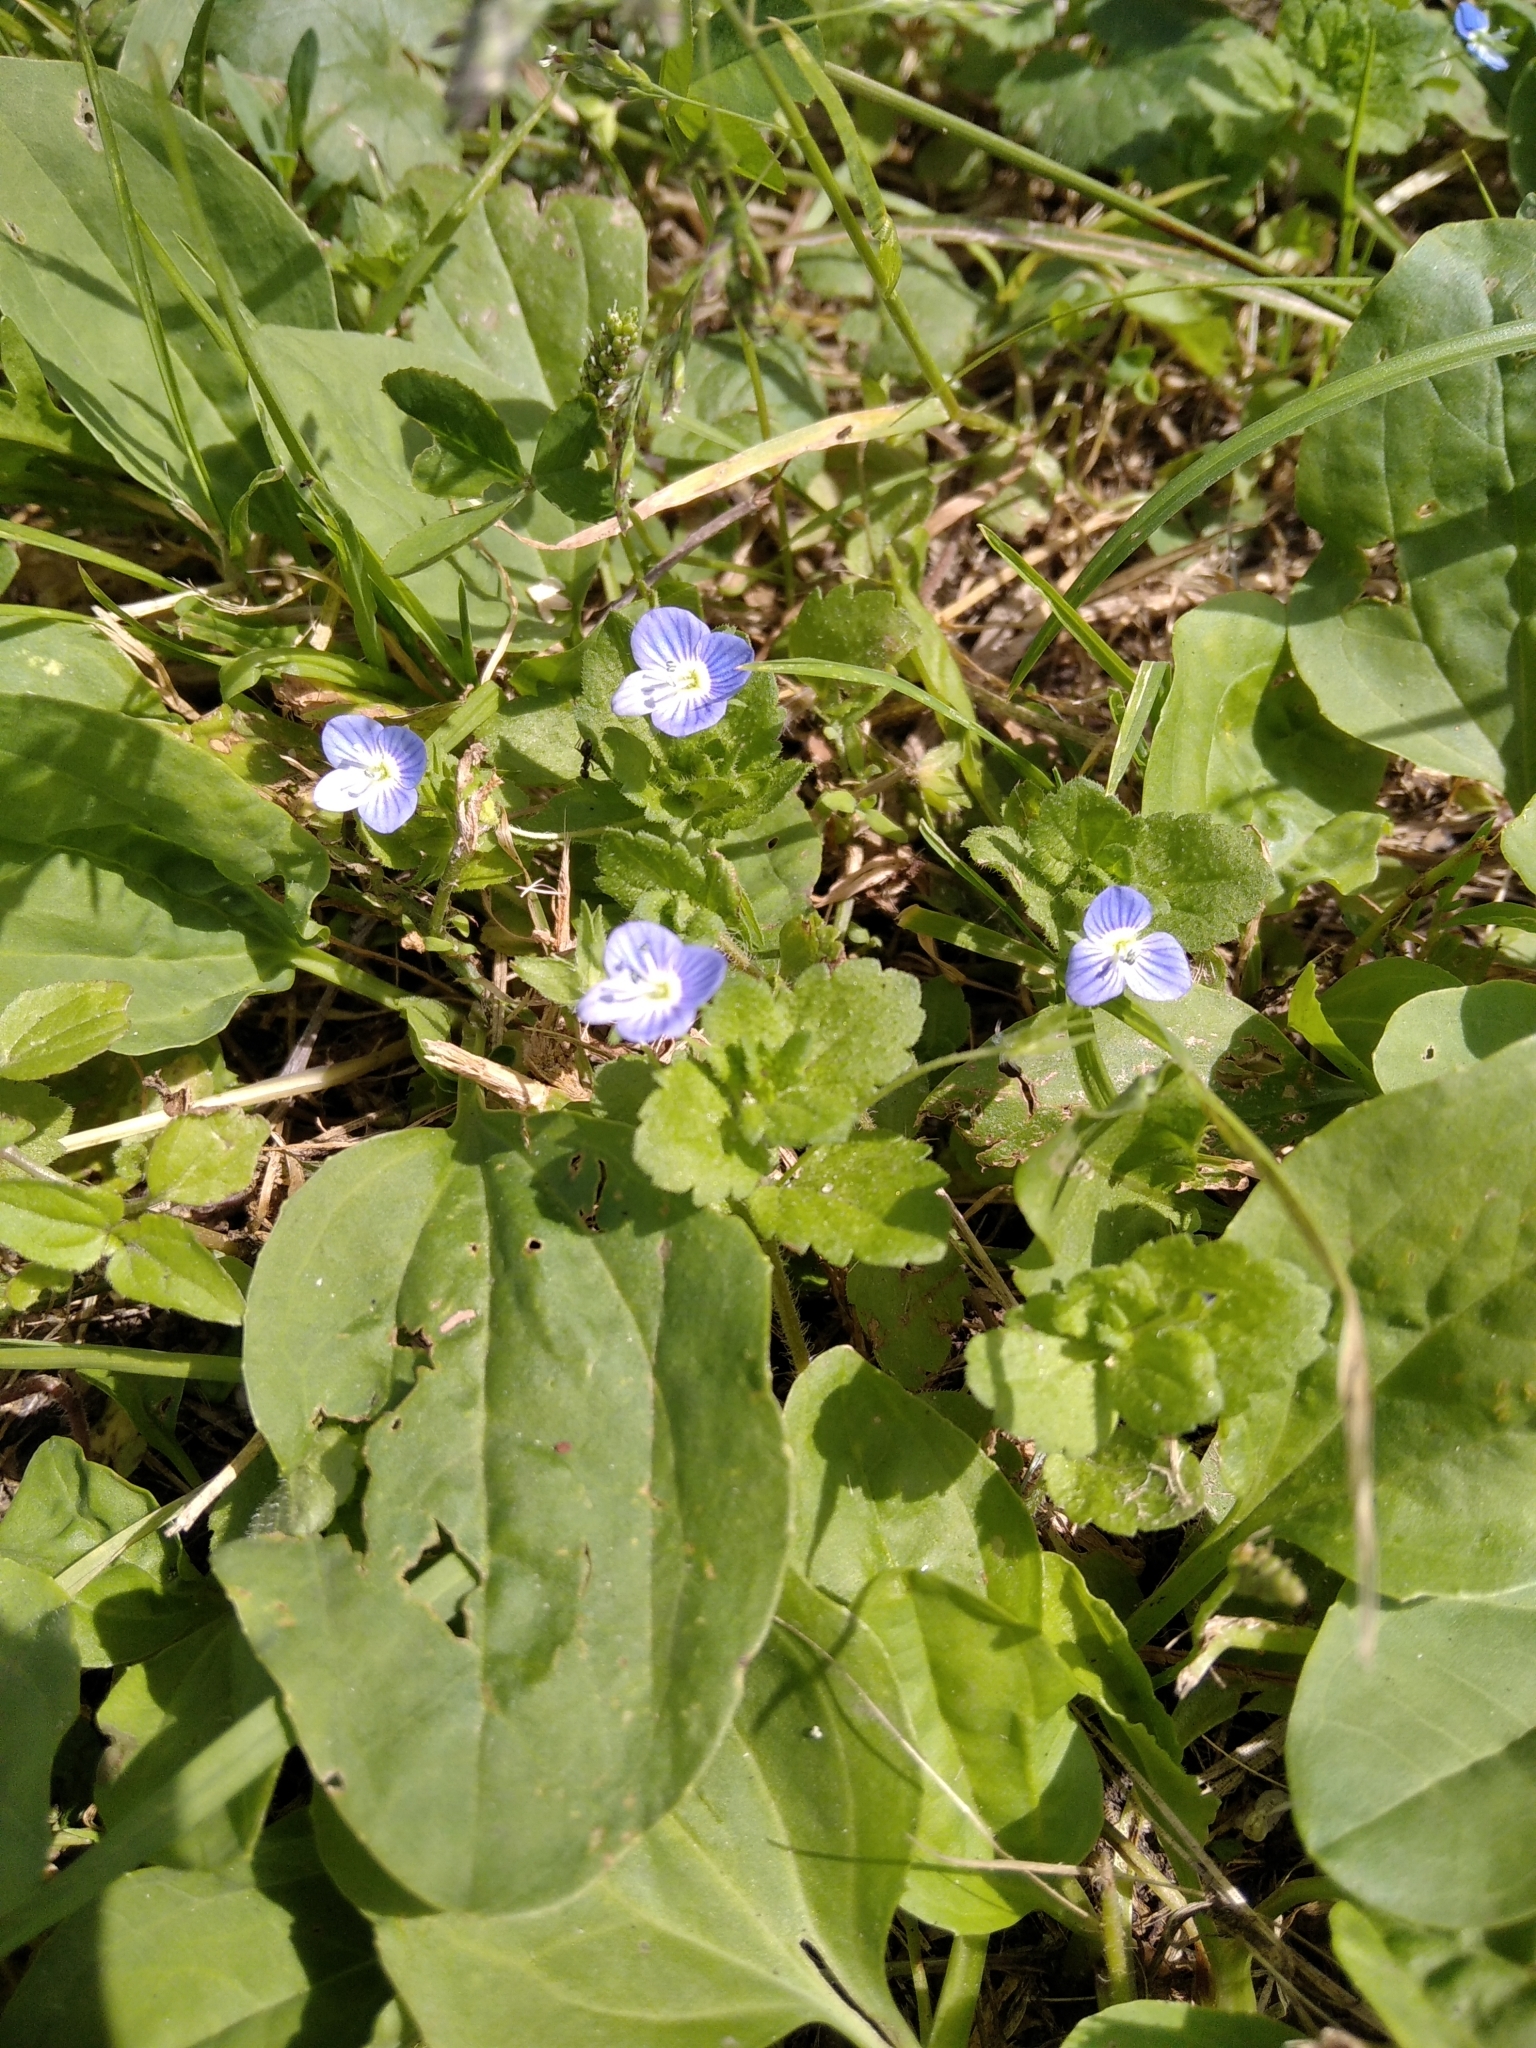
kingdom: Plantae
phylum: Tracheophyta
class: Magnoliopsida
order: Lamiales
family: Plantaginaceae
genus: Veronica
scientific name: Veronica persica
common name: Common field-speedwell
